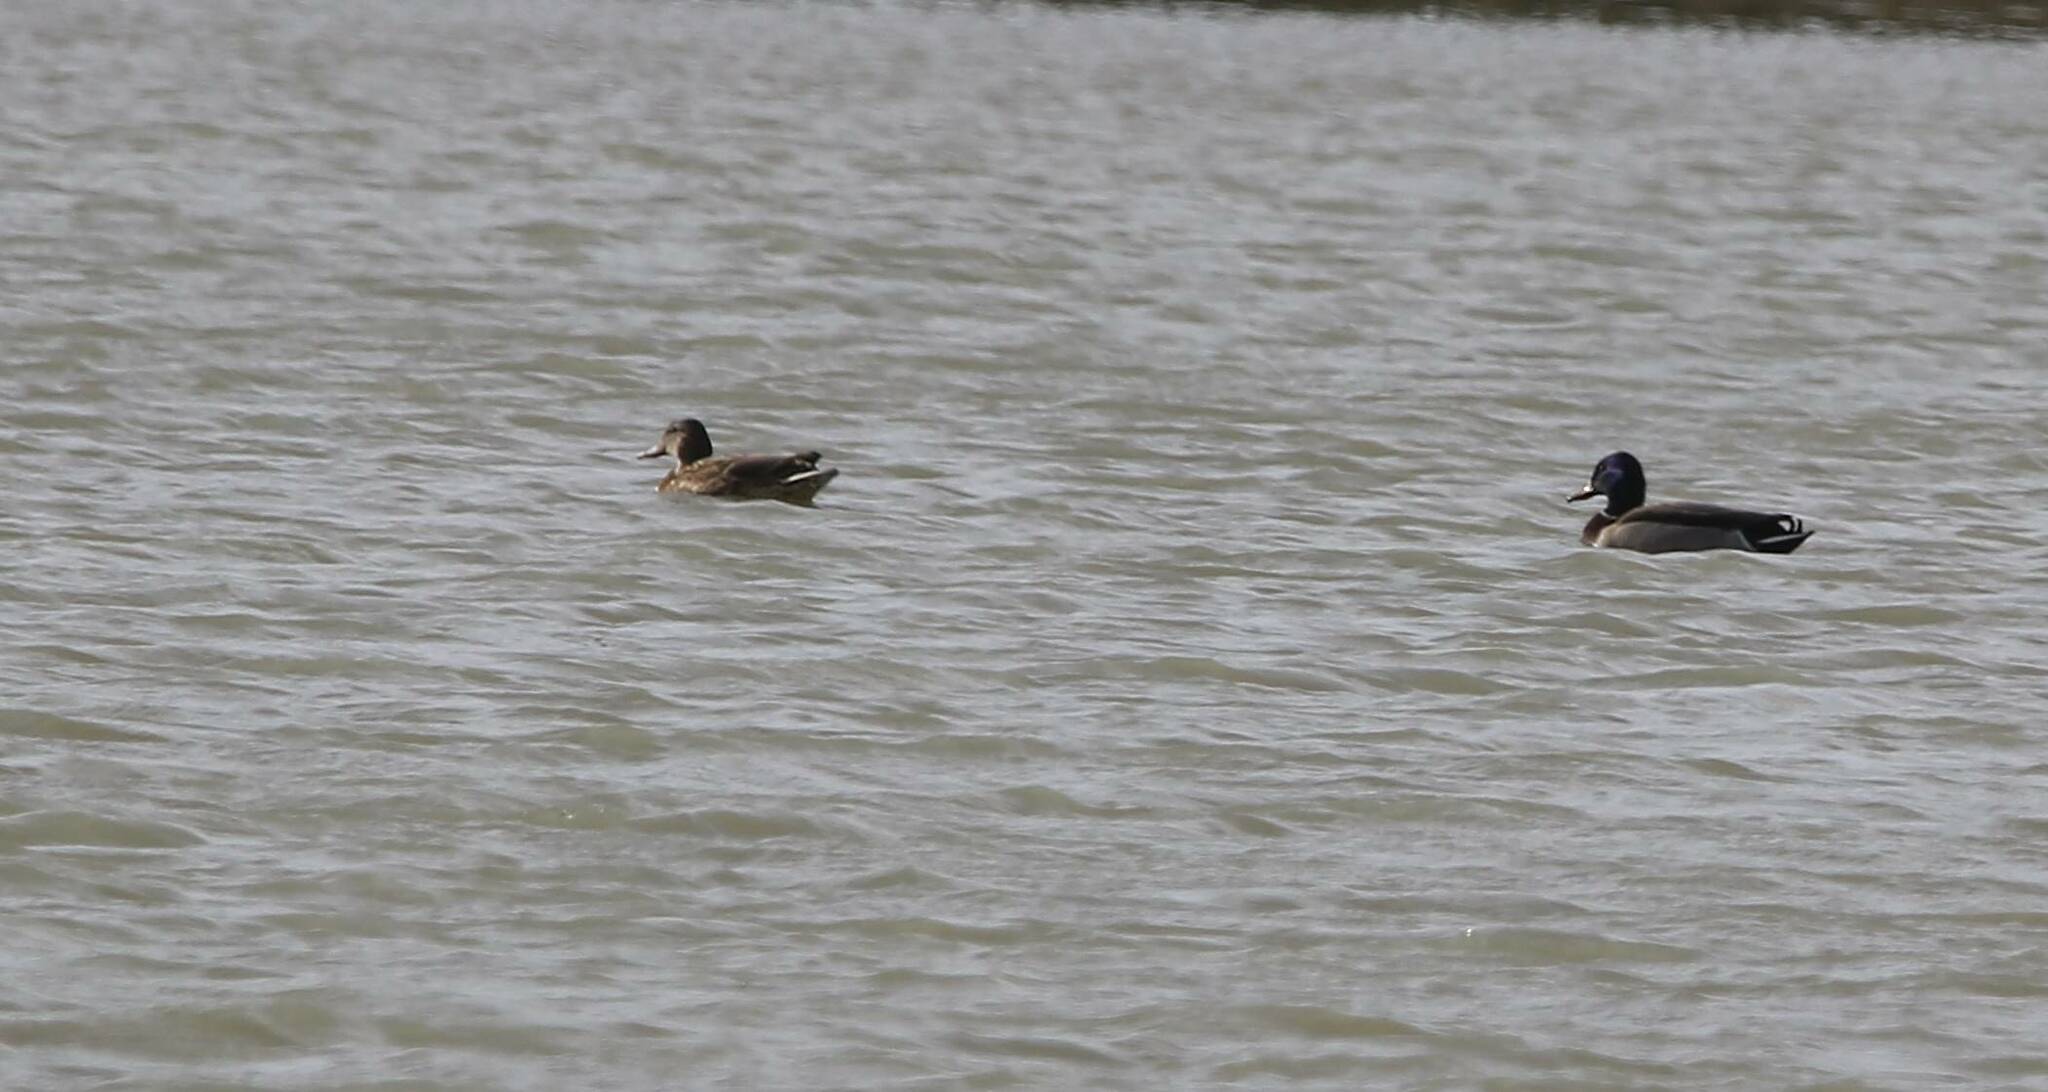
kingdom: Animalia
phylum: Chordata
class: Aves
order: Anseriformes
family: Anatidae
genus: Anas
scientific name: Anas platyrhynchos
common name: Mallard
